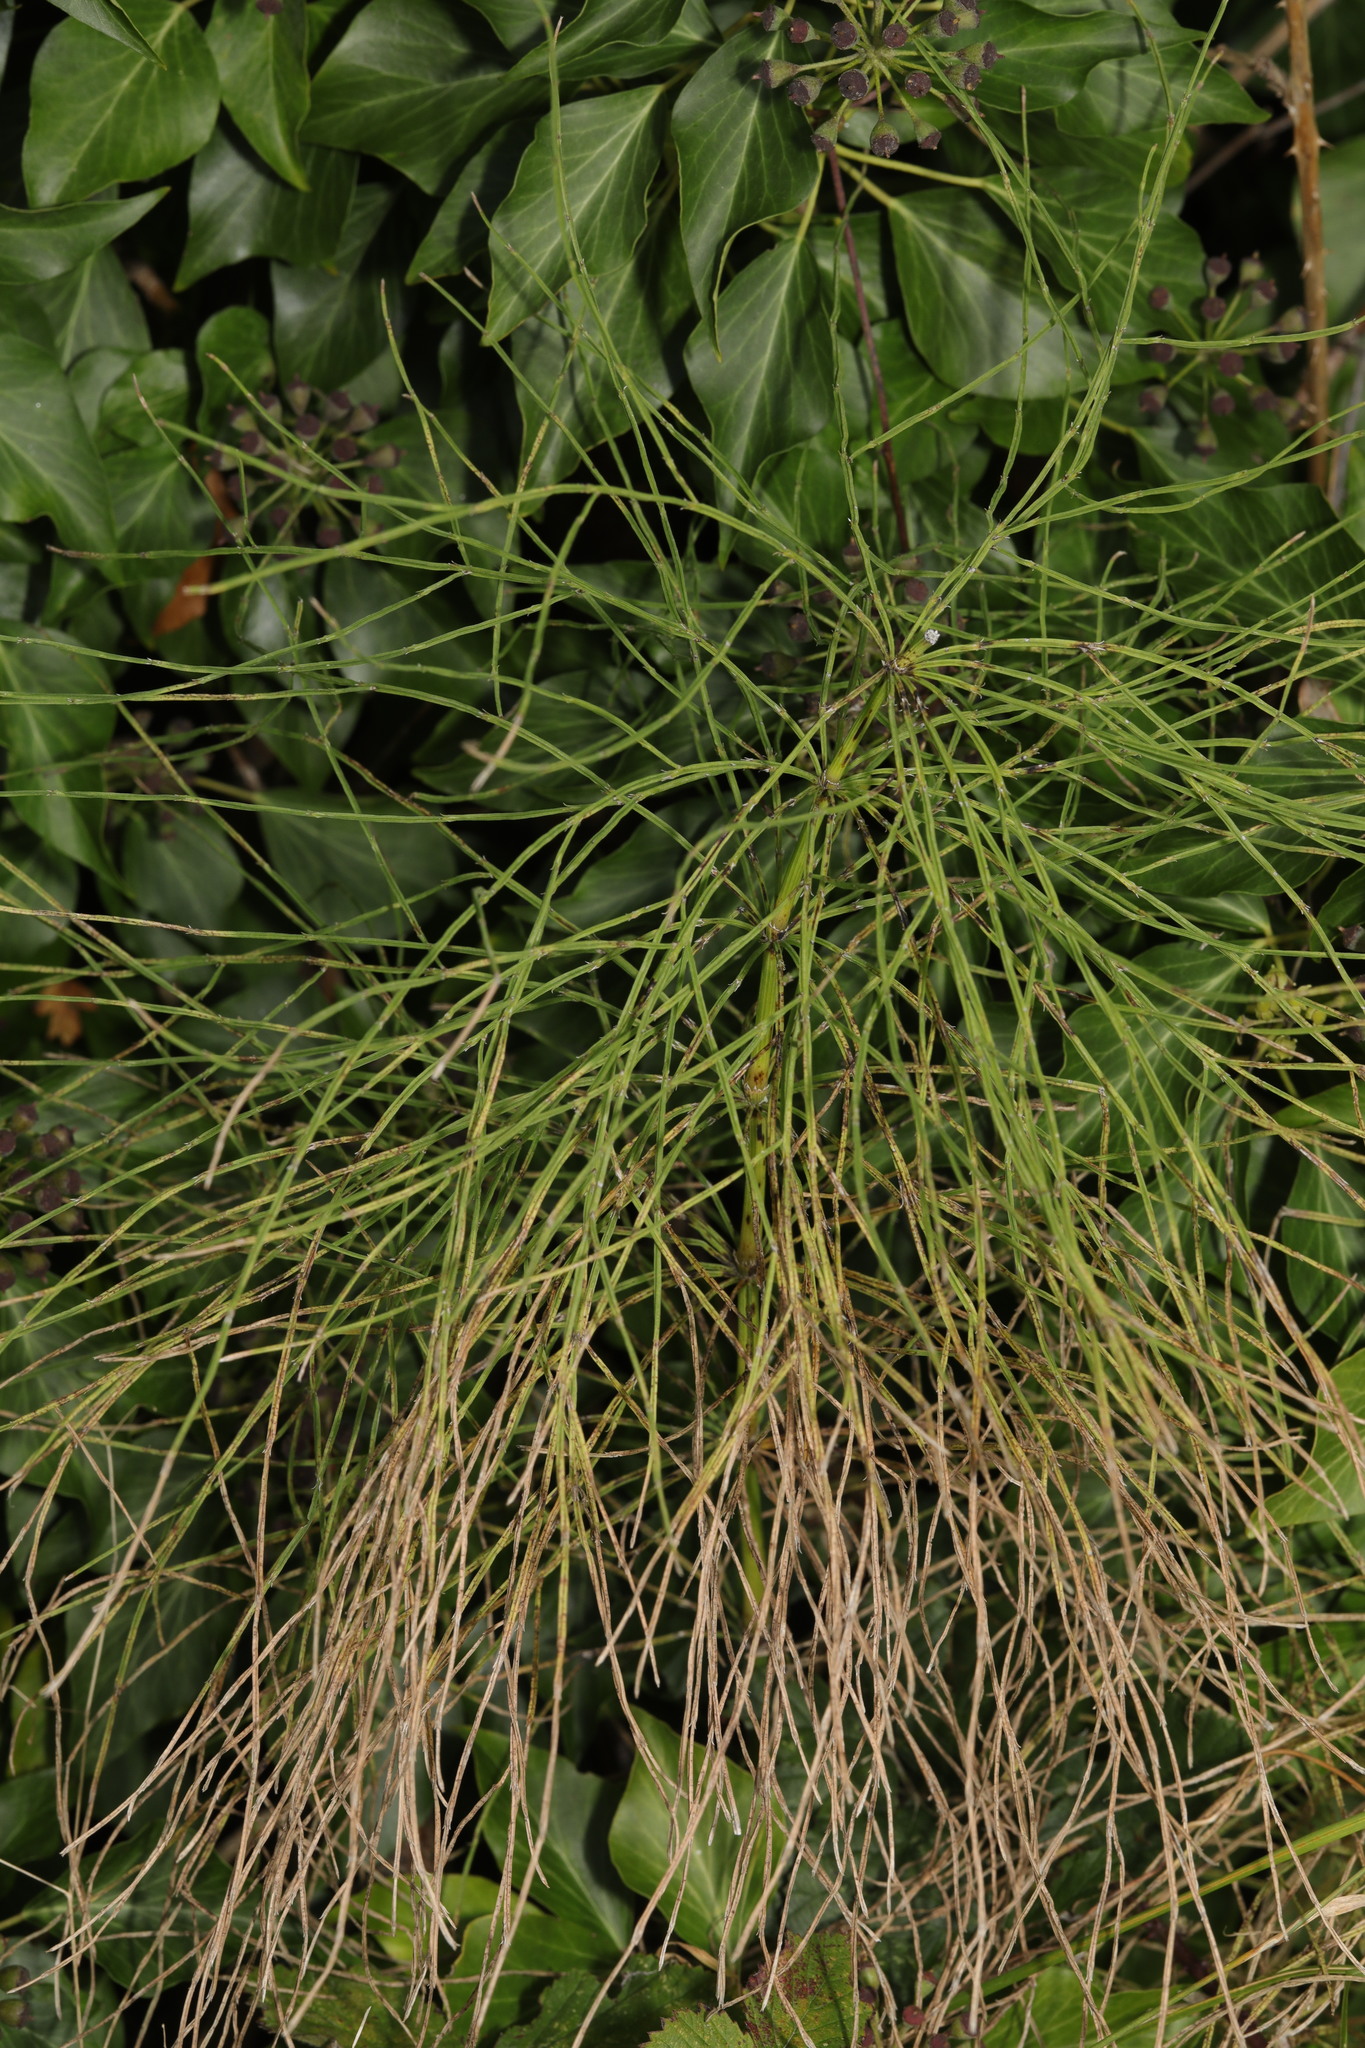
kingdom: Plantae
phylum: Tracheophyta
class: Polypodiopsida
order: Equisetales
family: Equisetaceae
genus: Equisetum
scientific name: Equisetum arvense
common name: Field horsetail
